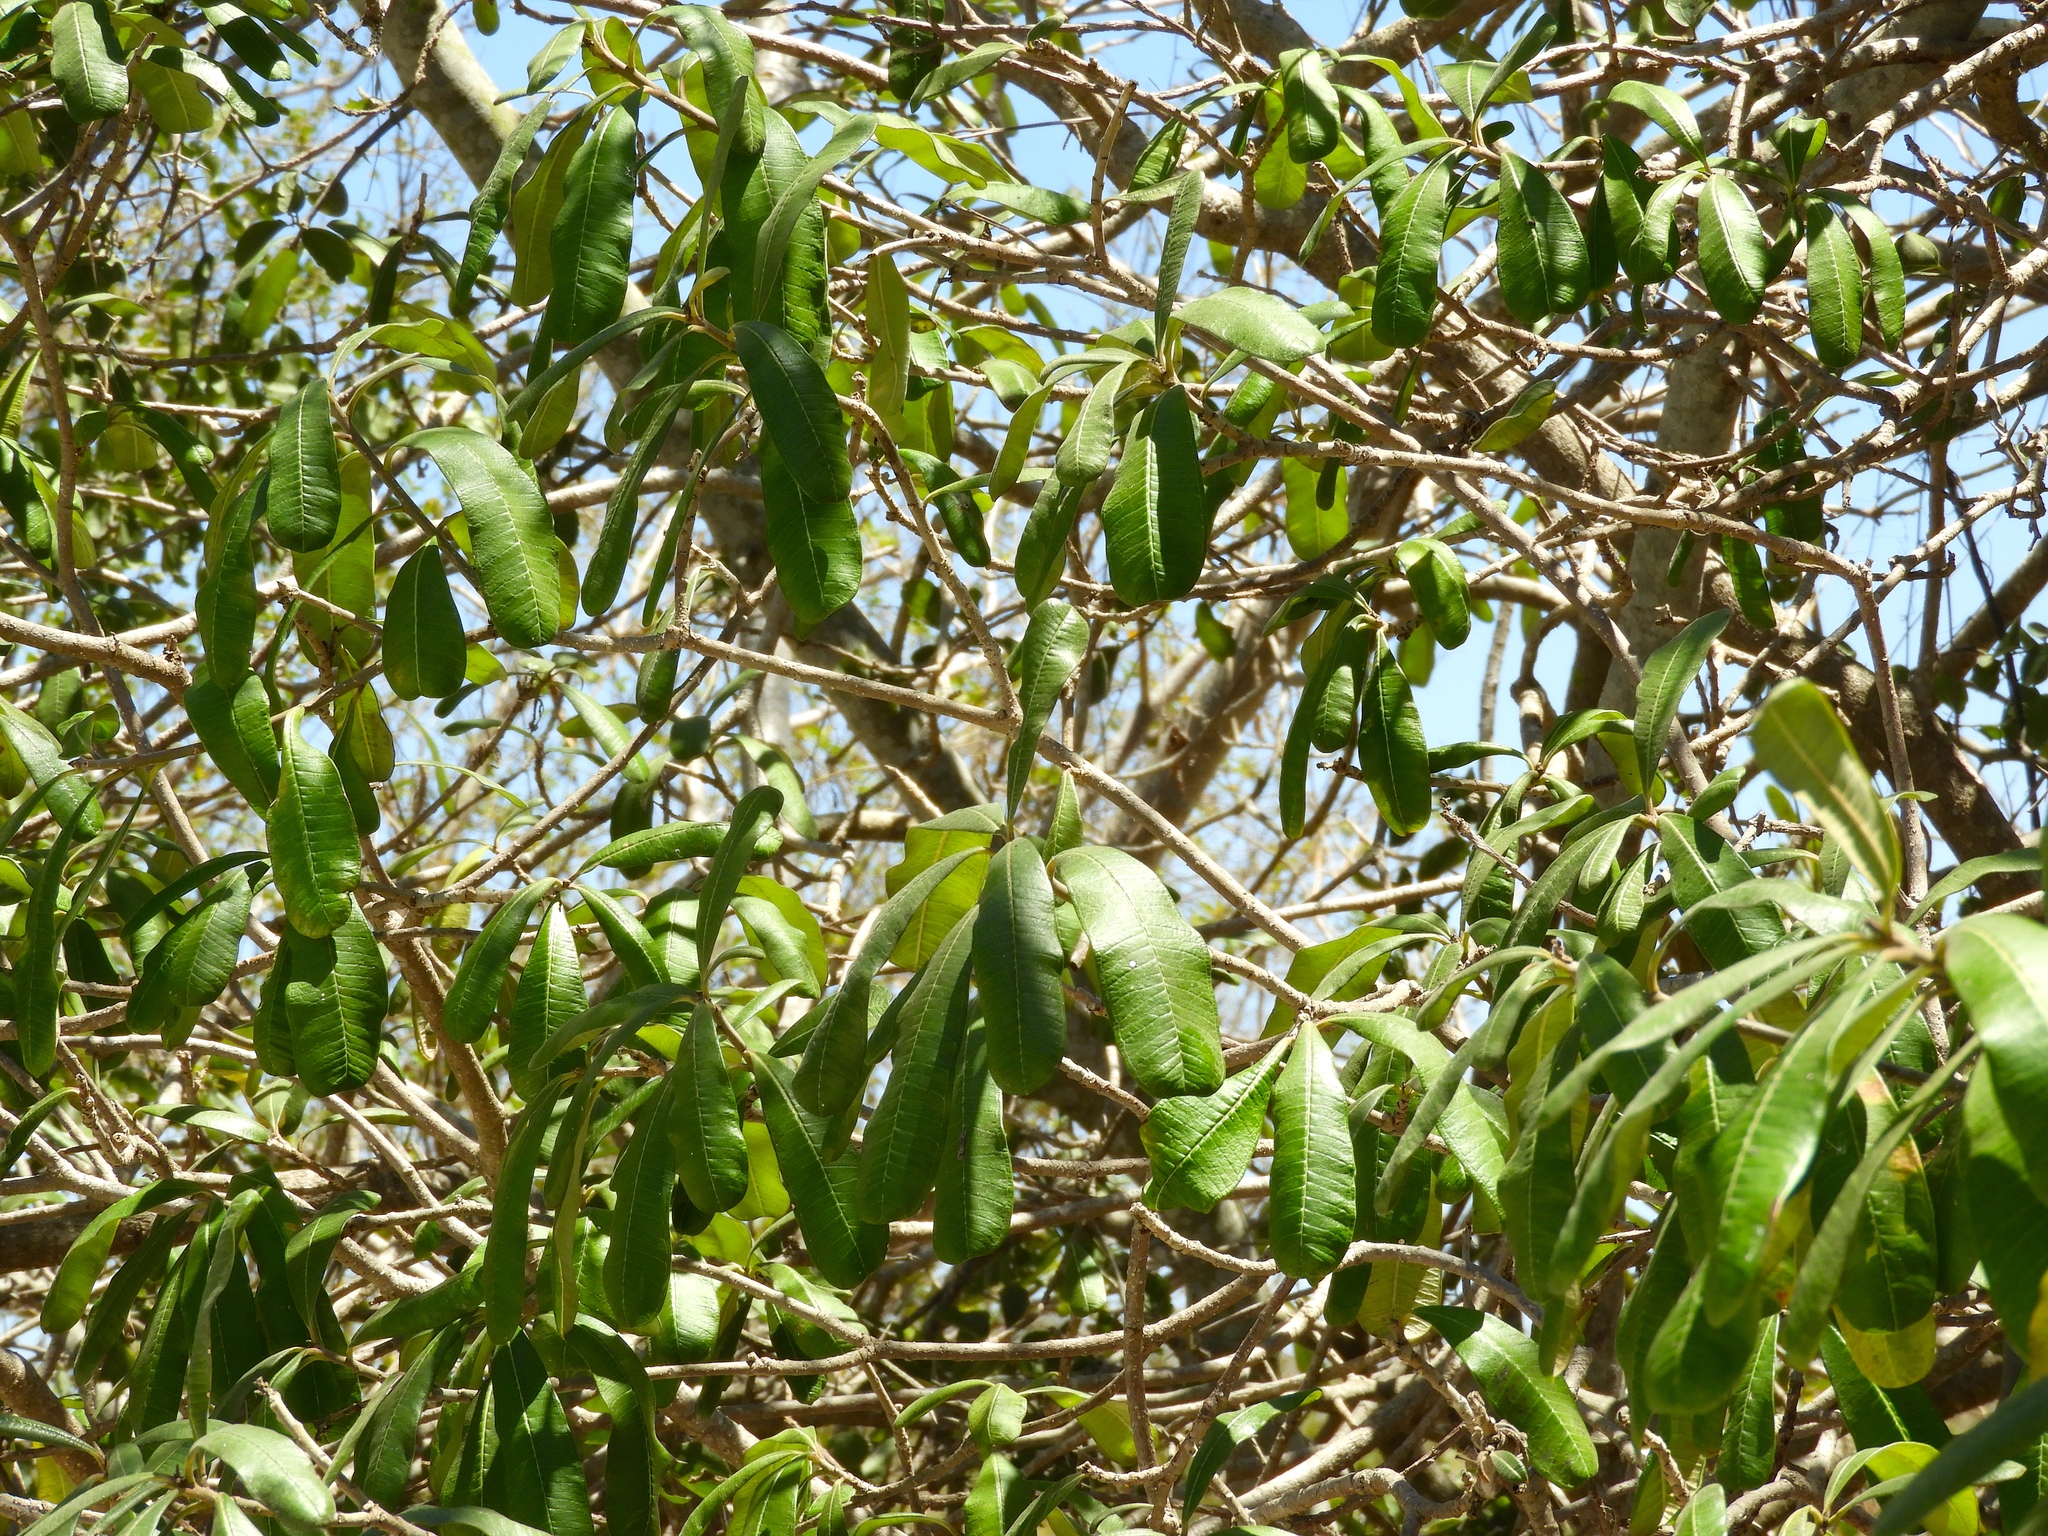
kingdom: Plantae
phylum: Tracheophyta
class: Magnoliopsida
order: Gentianales
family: Apocynaceae
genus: Cascabela
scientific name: Cascabela ovata
